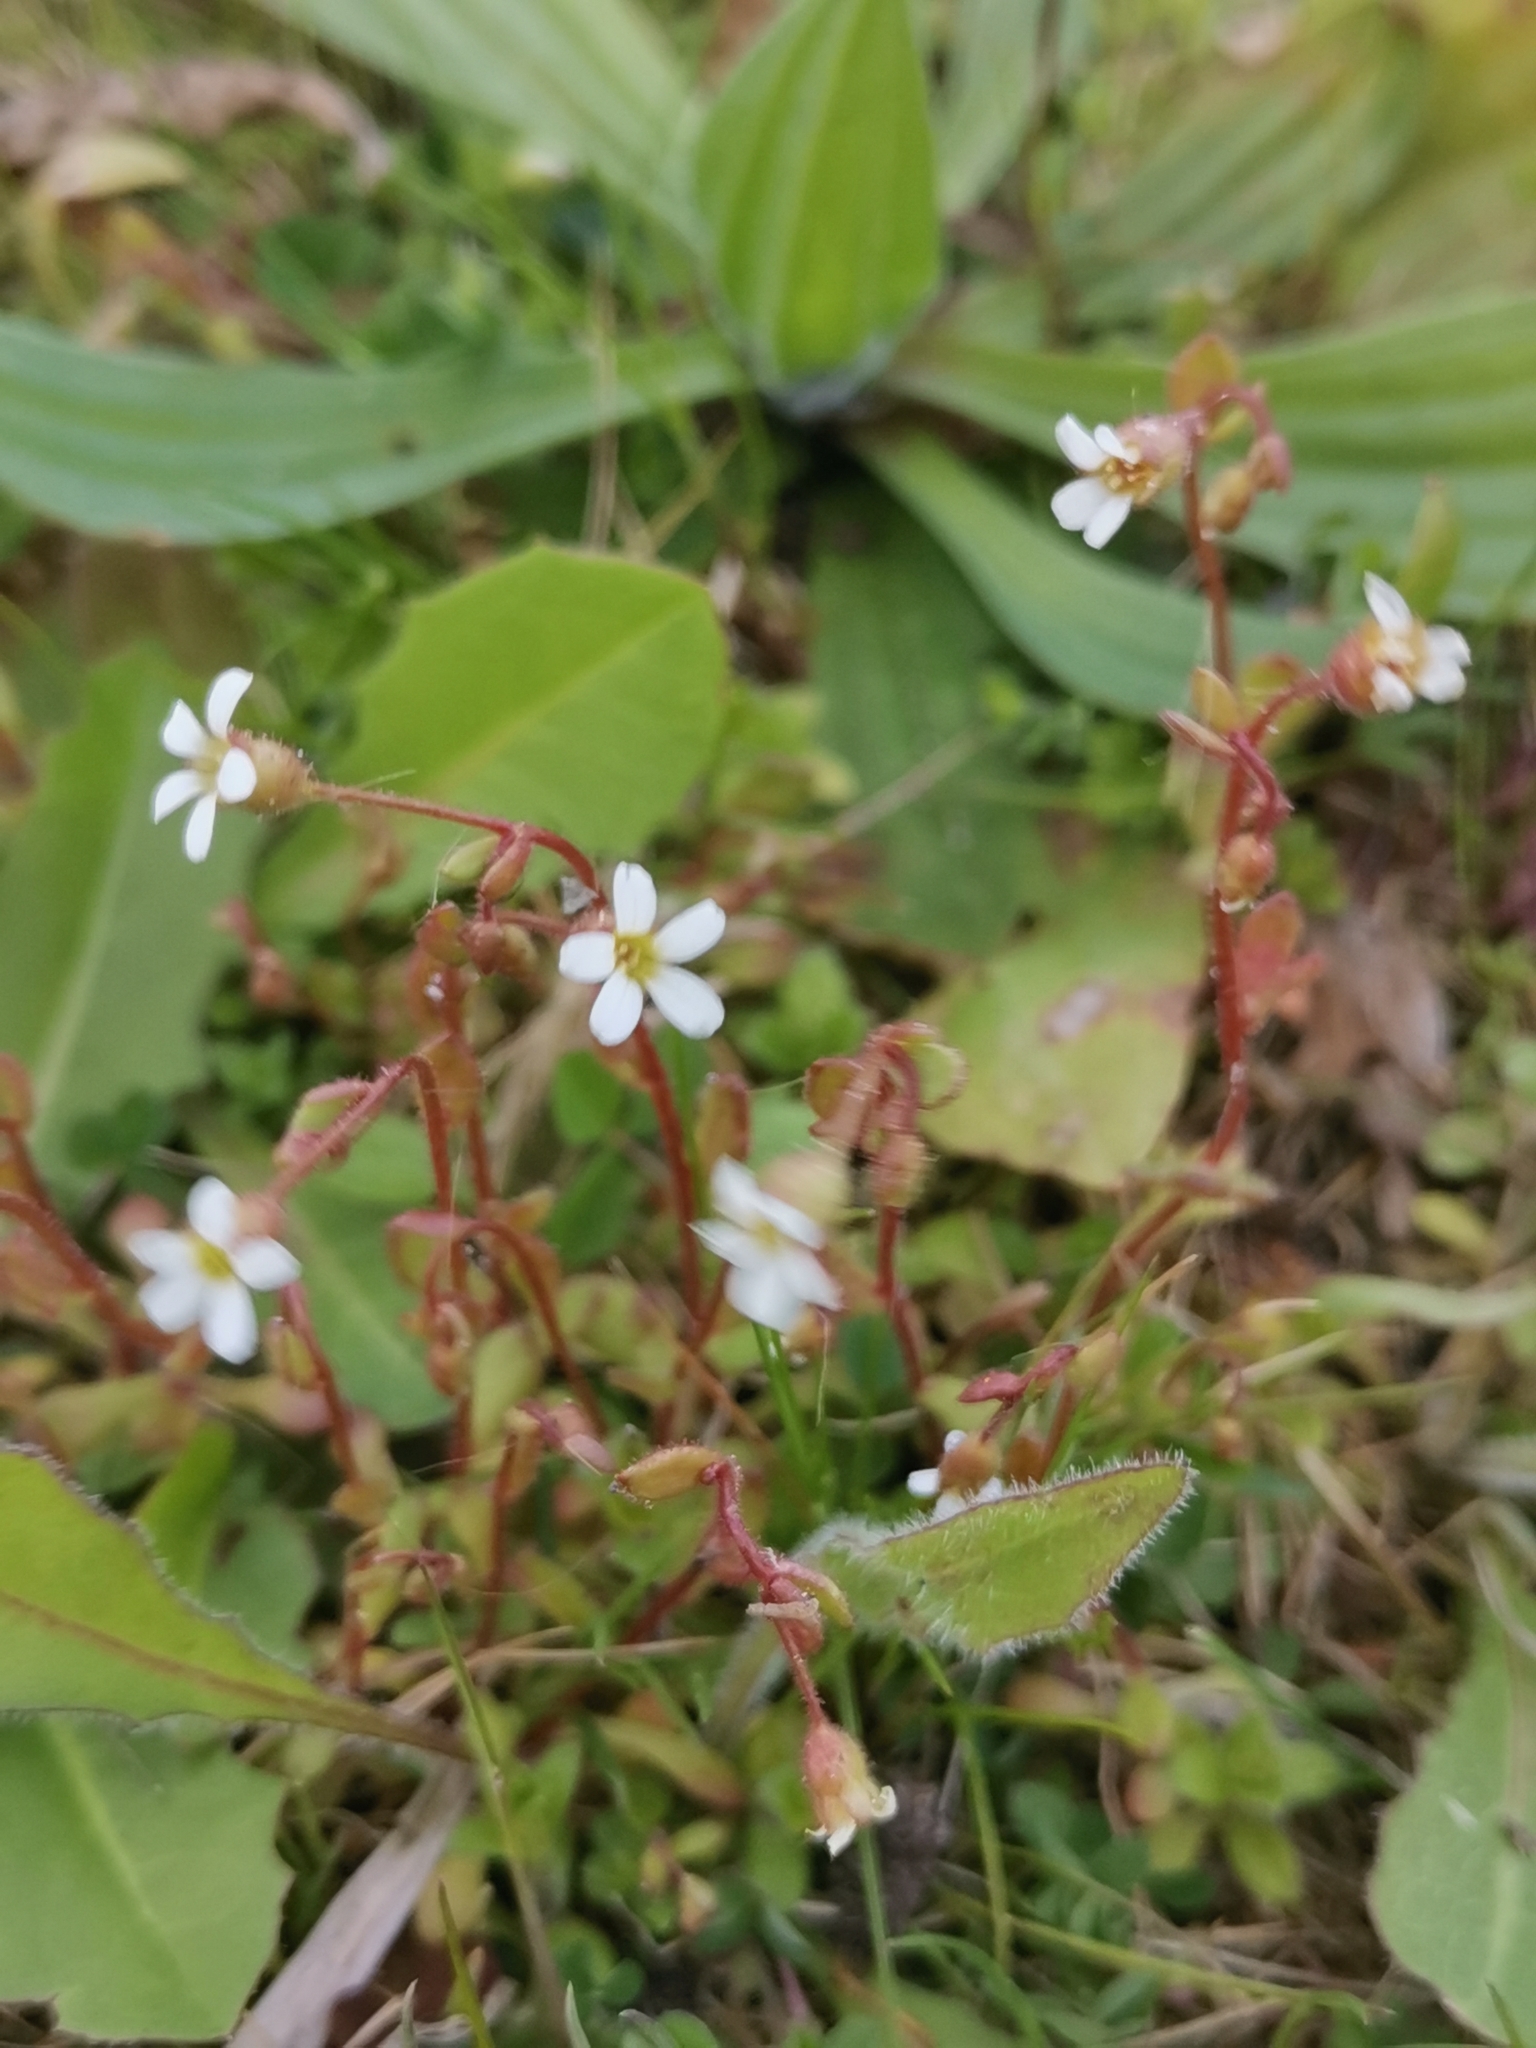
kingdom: Plantae
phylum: Tracheophyta
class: Magnoliopsida
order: Saxifragales
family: Saxifragaceae
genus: Saxifraga
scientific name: Saxifraga tridactylites
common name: Rue-leaved saxifrage
